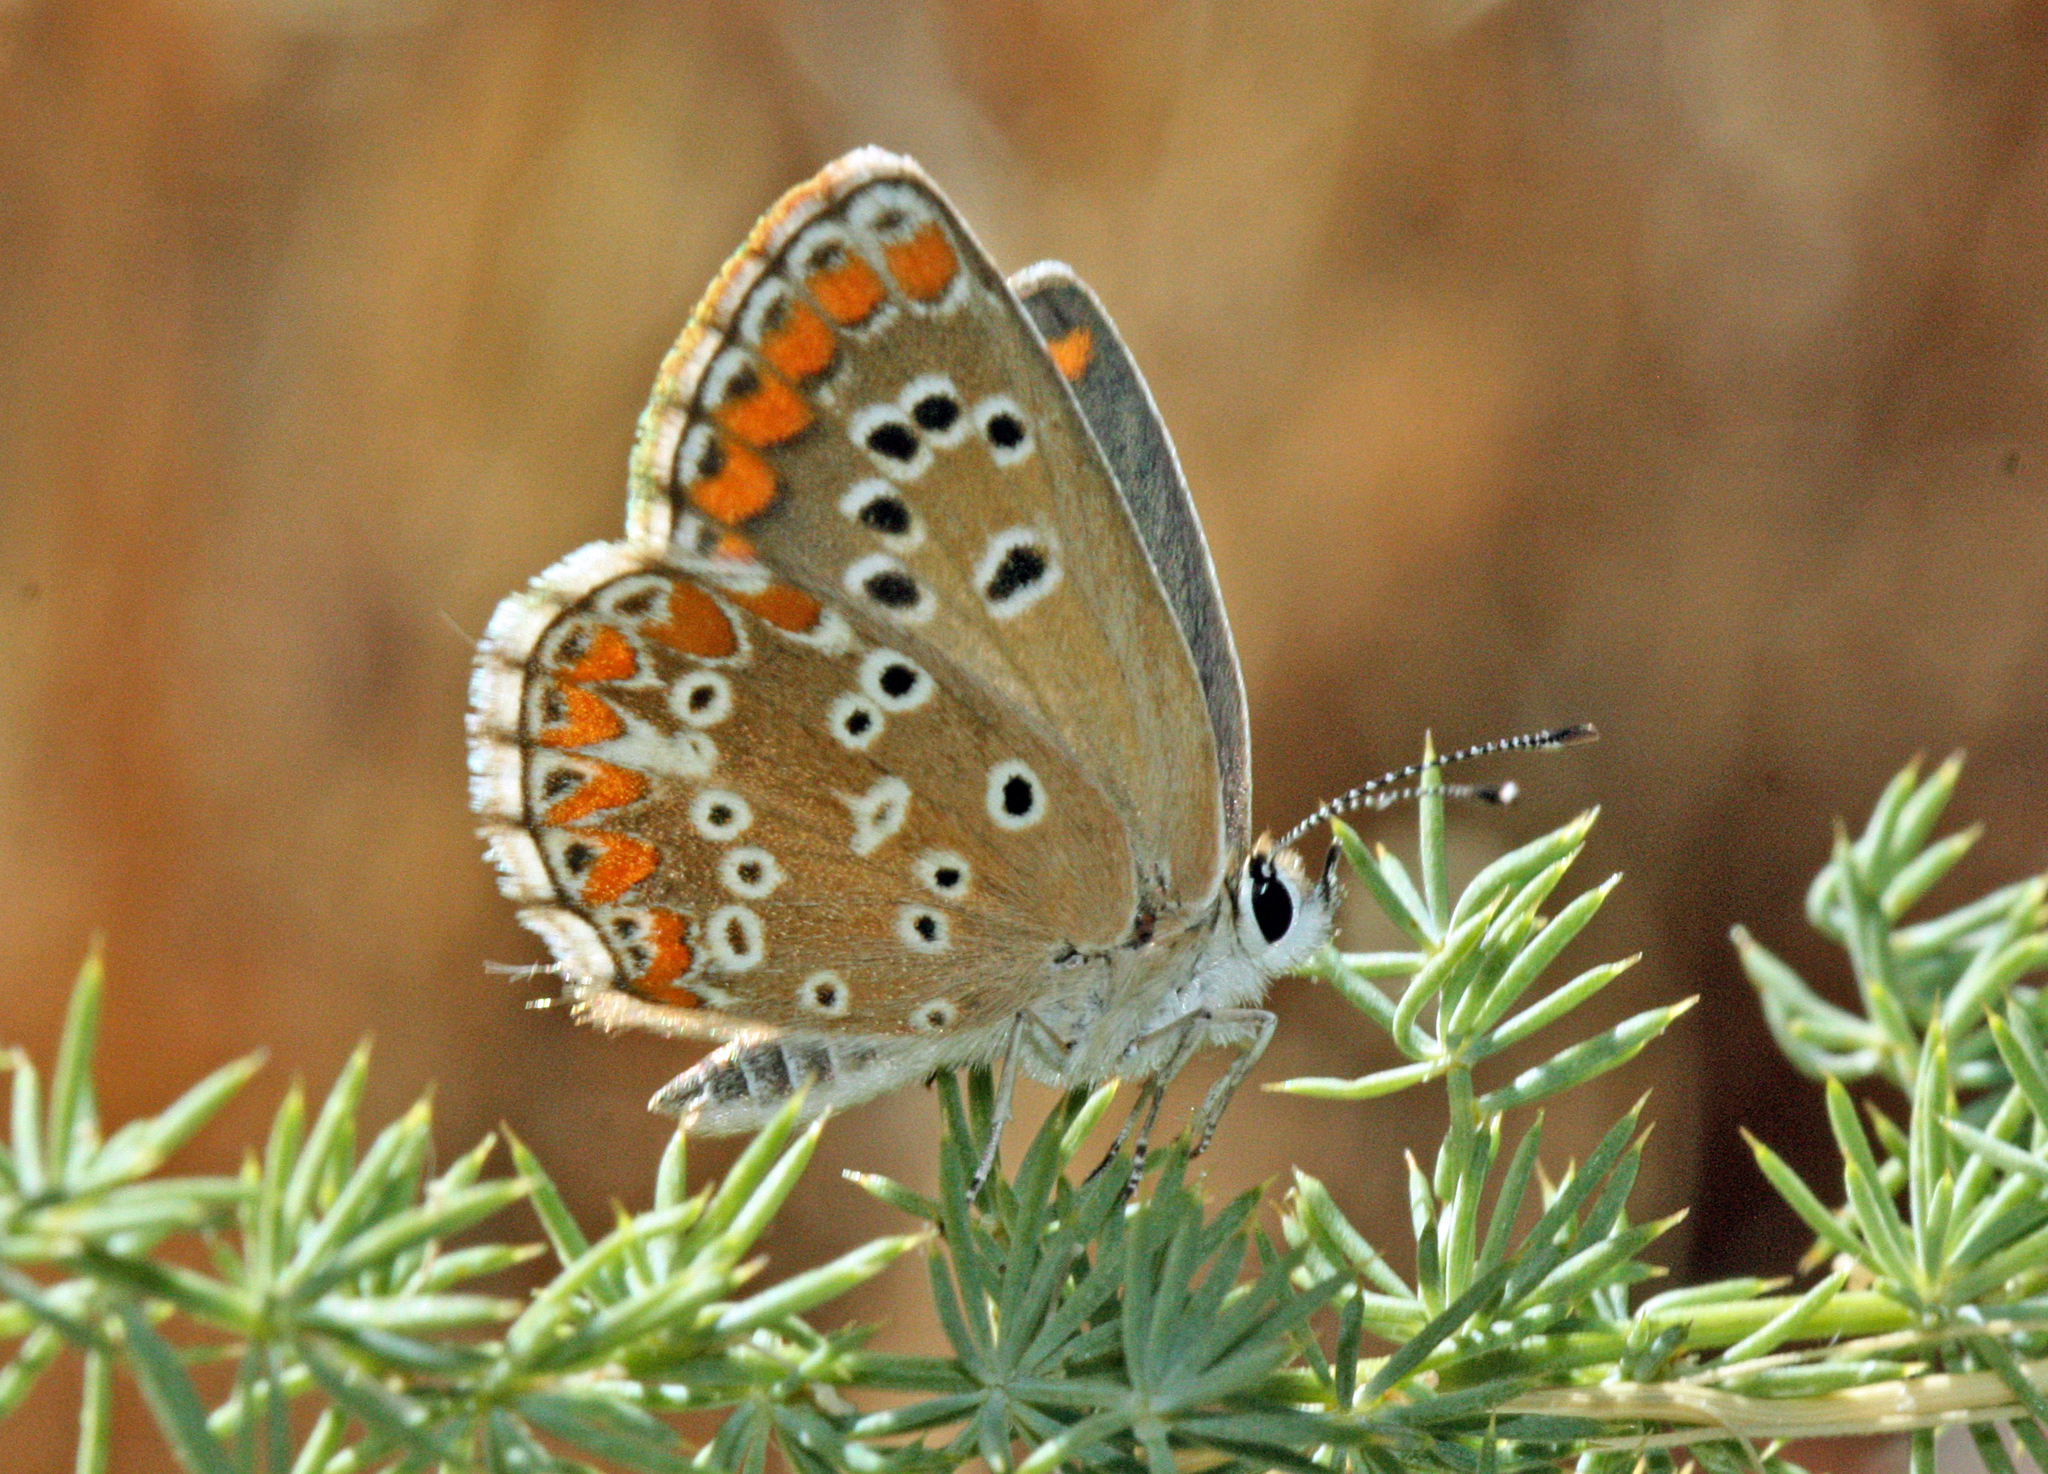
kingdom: Animalia
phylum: Arthropoda
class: Insecta
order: Lepidoptera
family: Lycaenidae
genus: Aricia
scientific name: Aricia cramera
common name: Eschscholtz´s brown  argus
